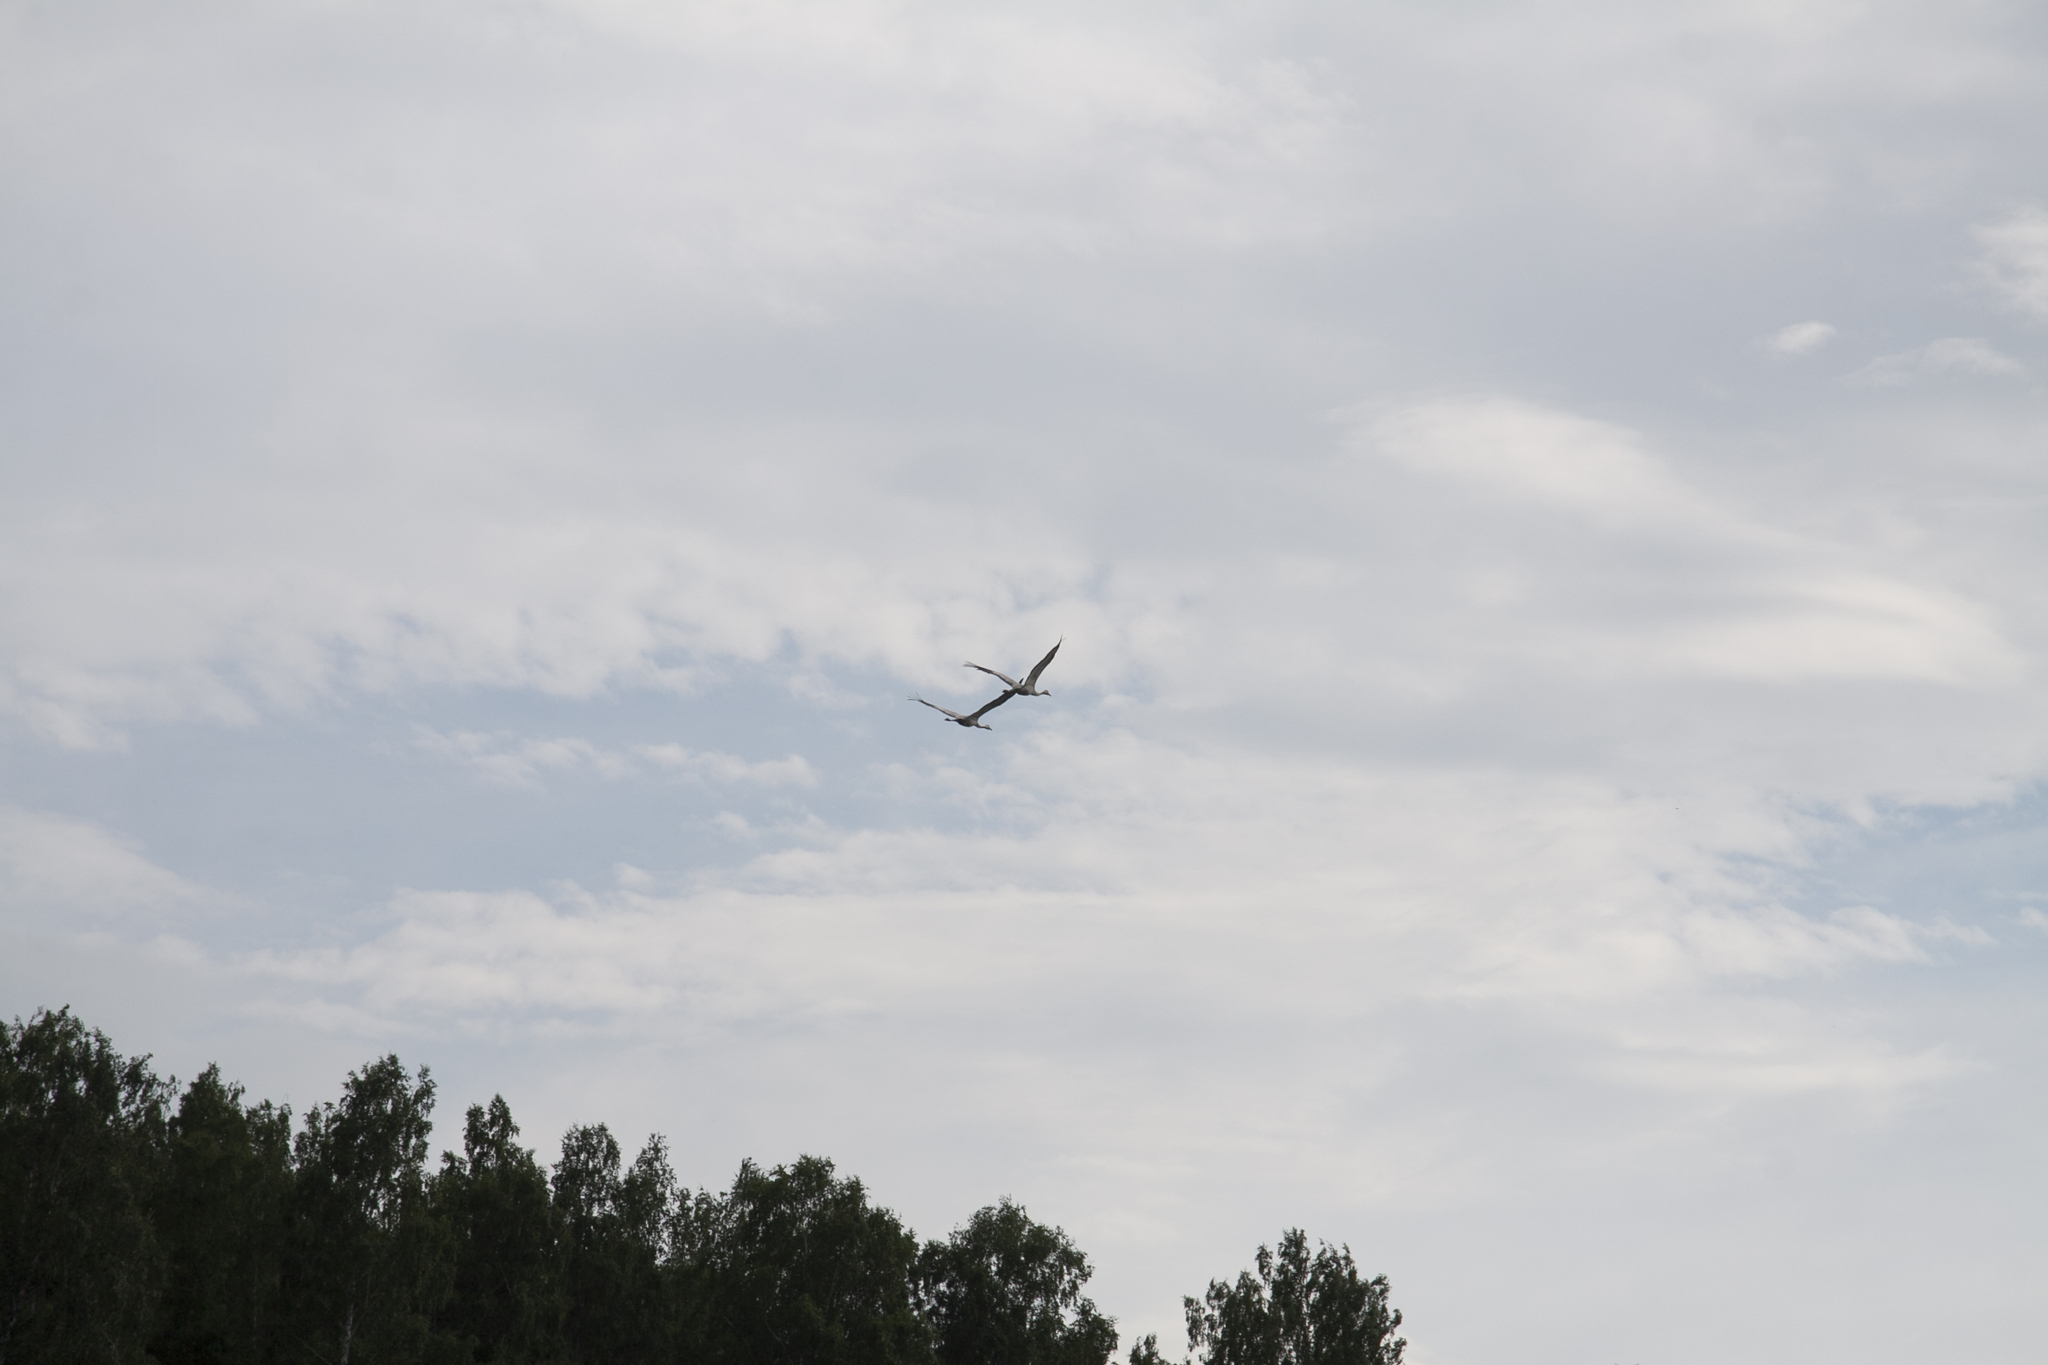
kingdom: Animalia
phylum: Chordata
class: Aves
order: Gruiformes
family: Gruidae
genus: Grus
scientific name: Grus grus
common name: Common crane
